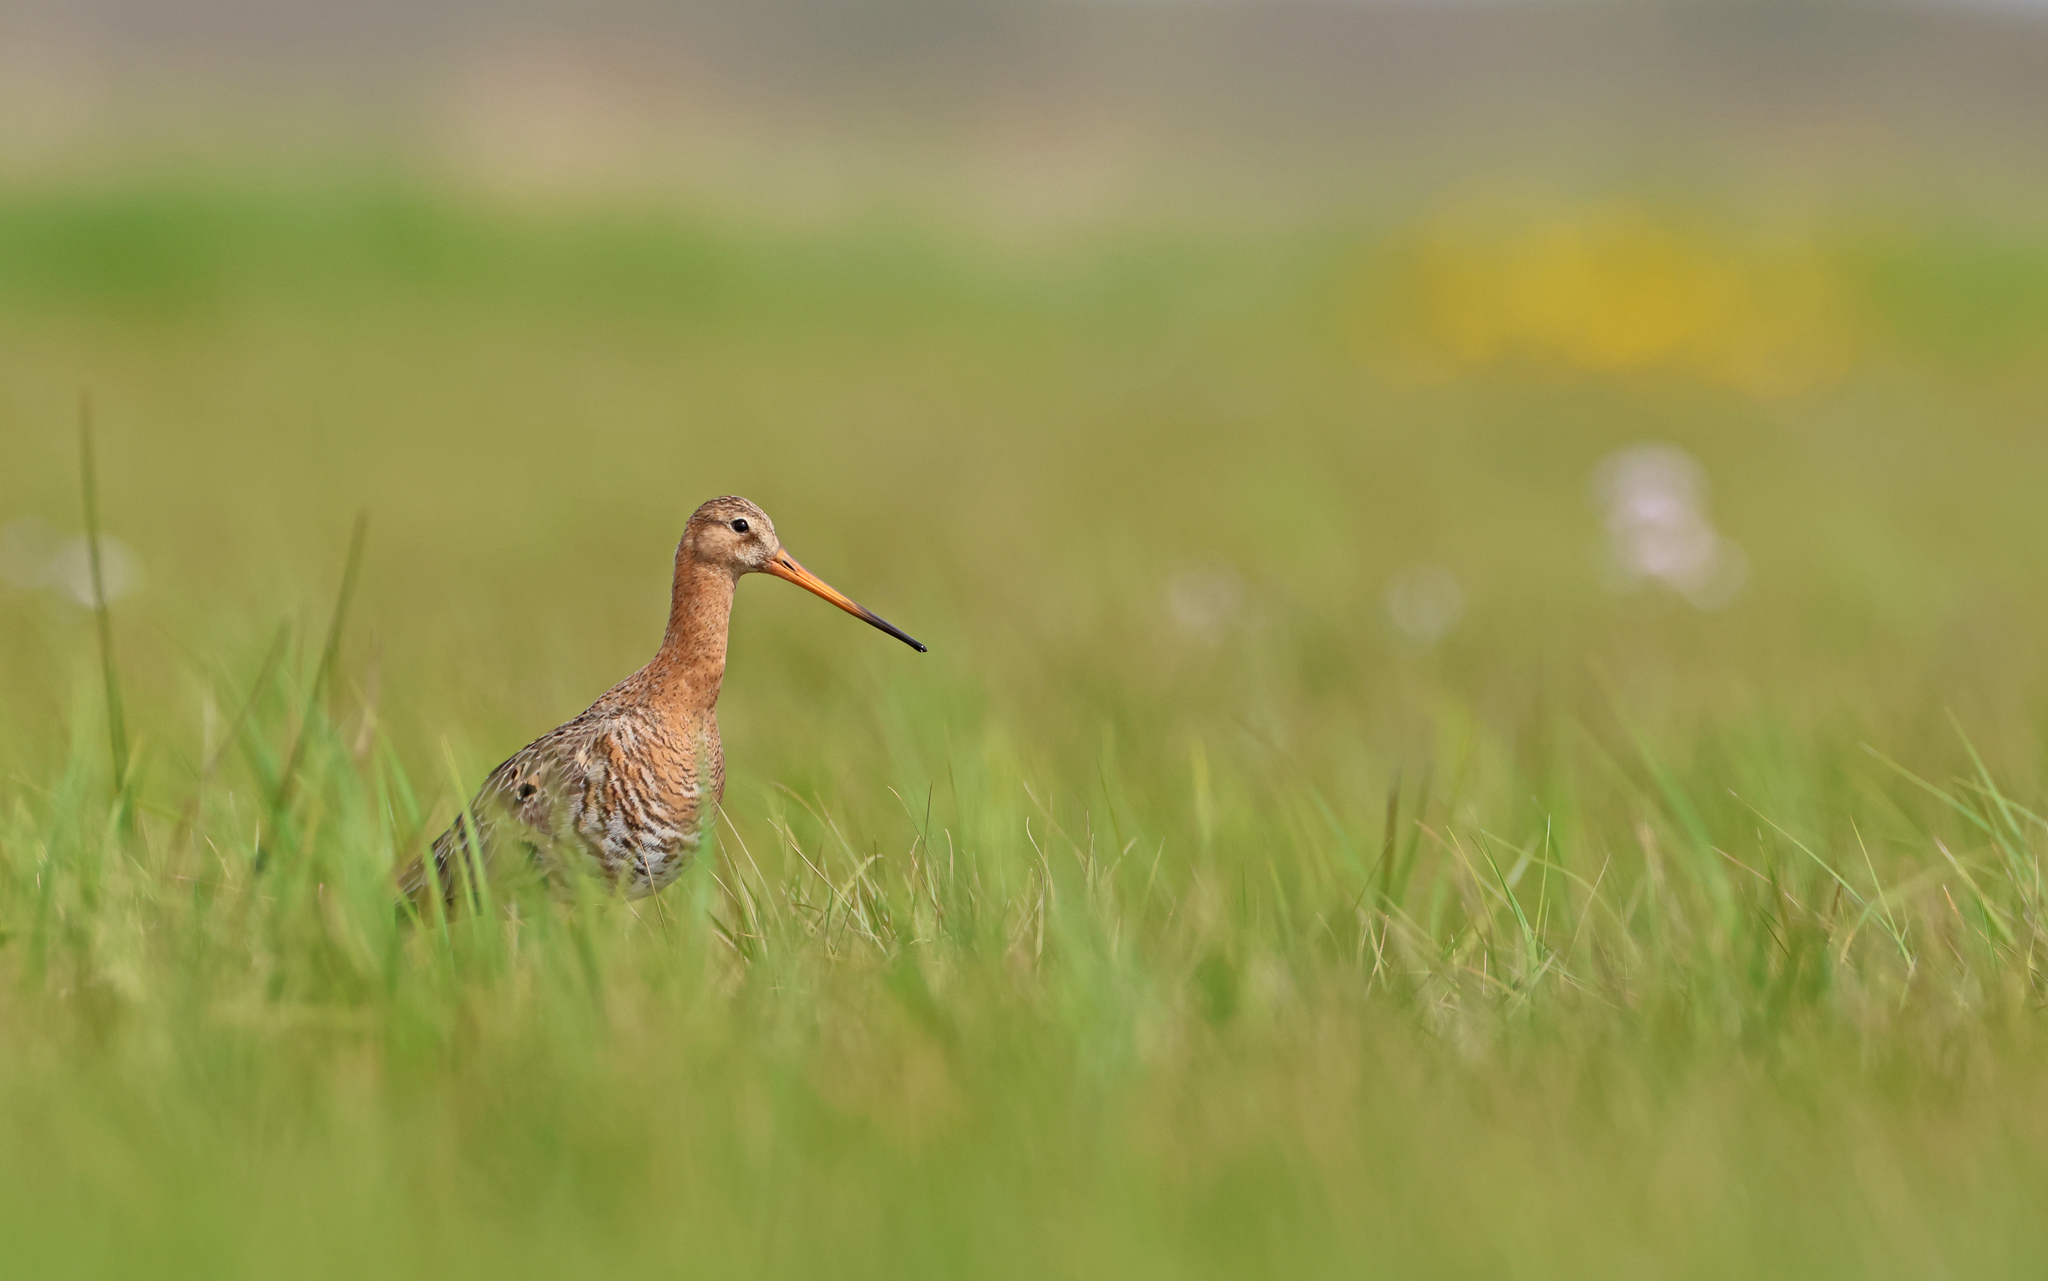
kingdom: Animalia
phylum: Chordata
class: Aves
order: Charadriiformes
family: Scolopacidae
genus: Limosa
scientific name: Limosa limosa
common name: Black-tailed godwit
